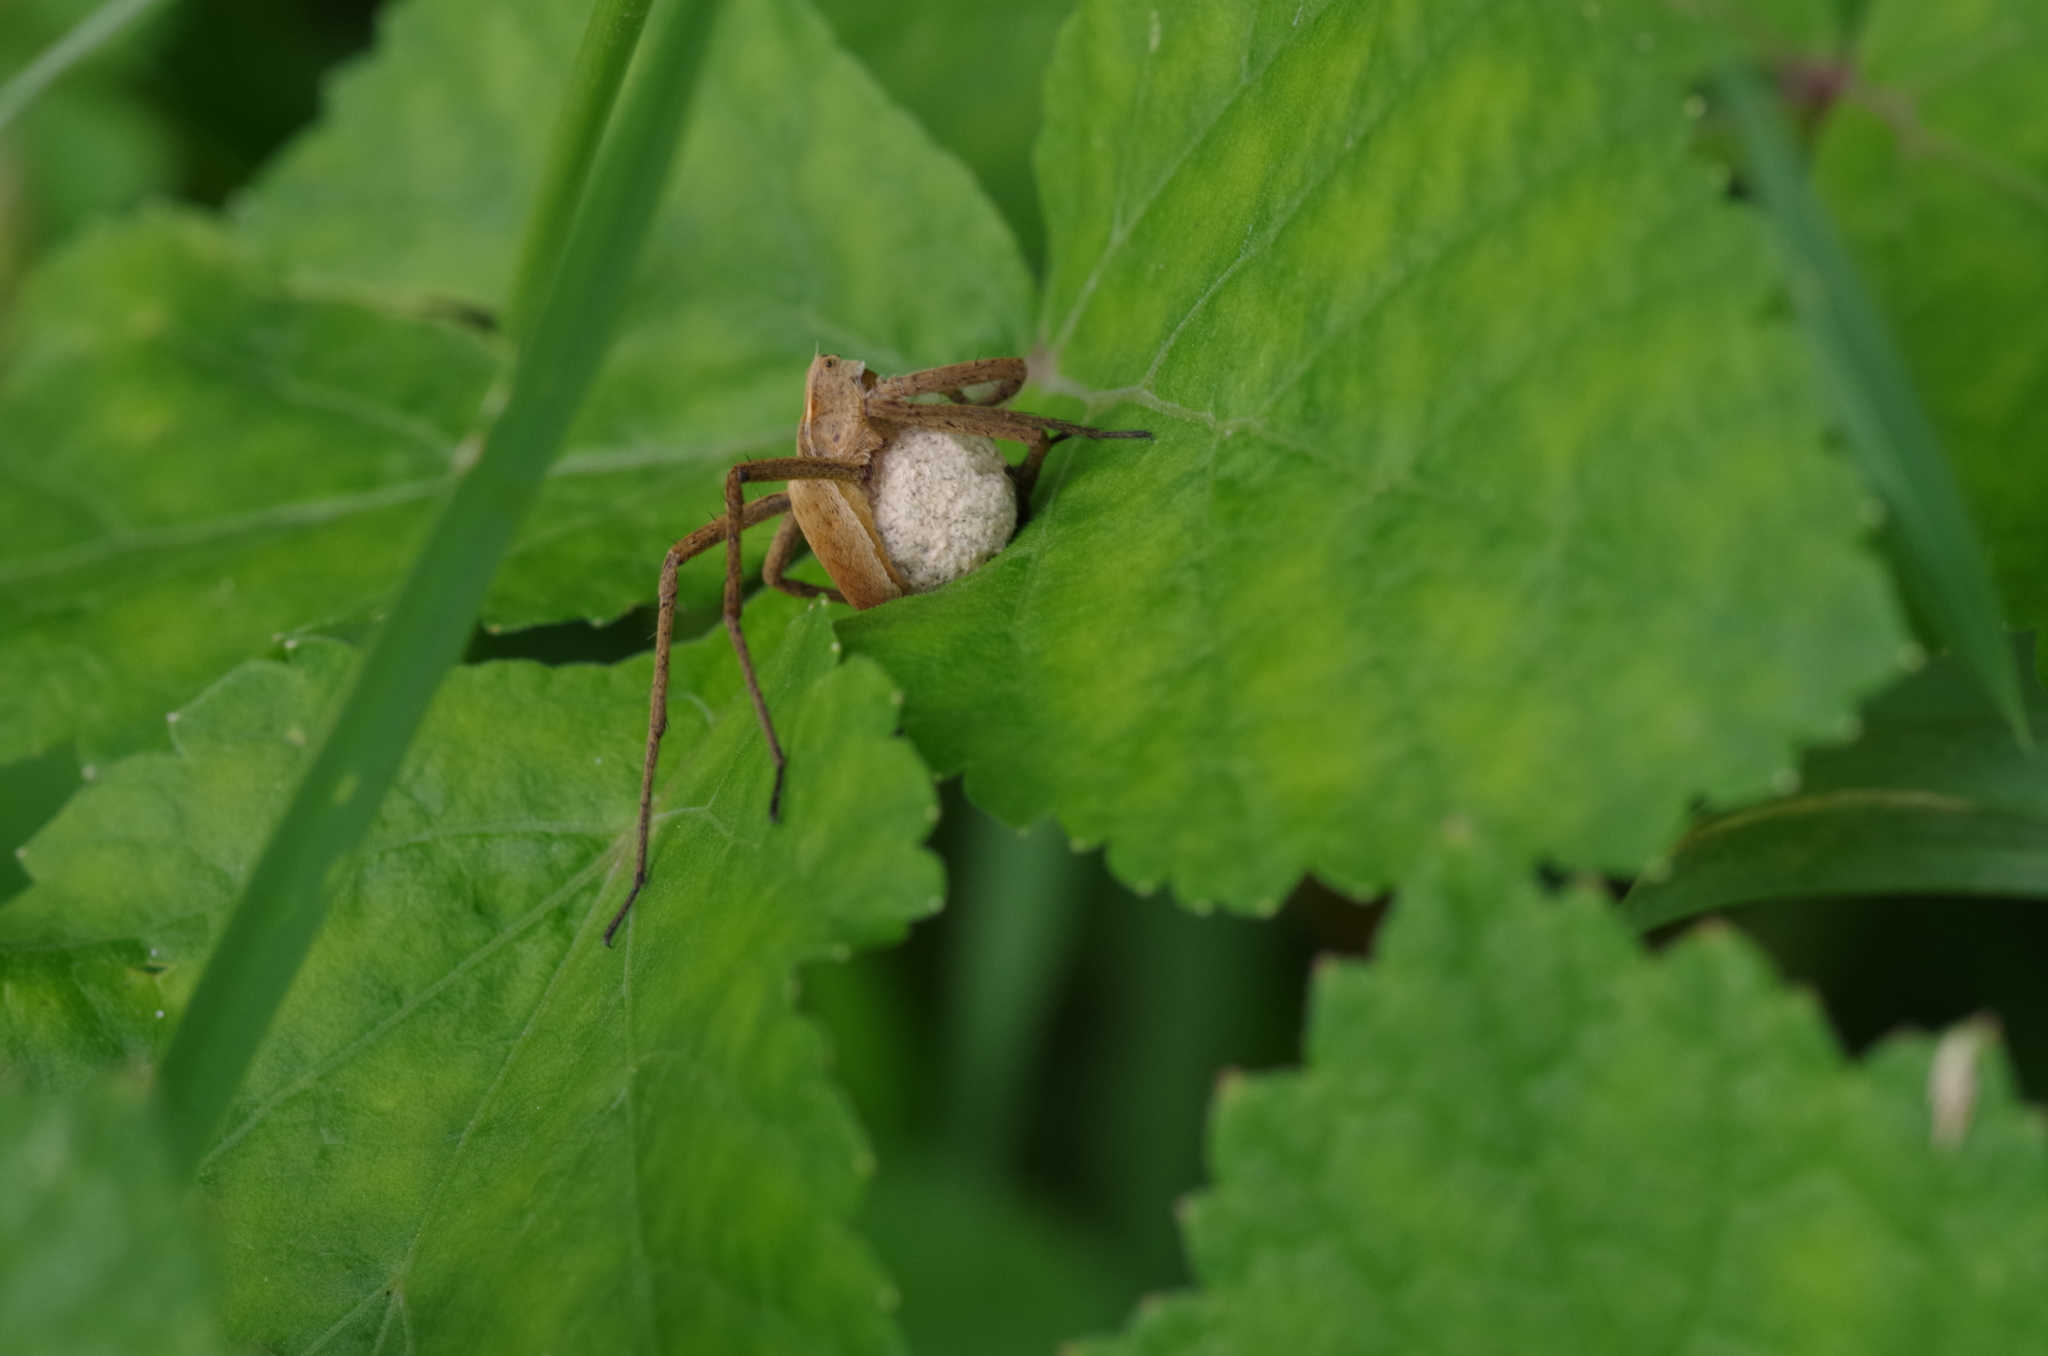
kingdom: Animalia
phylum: Arthropoda
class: Arachnida
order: Araneae
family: Pisauridae
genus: Pisaura
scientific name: Pisaura mirabilis
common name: Tent spider
